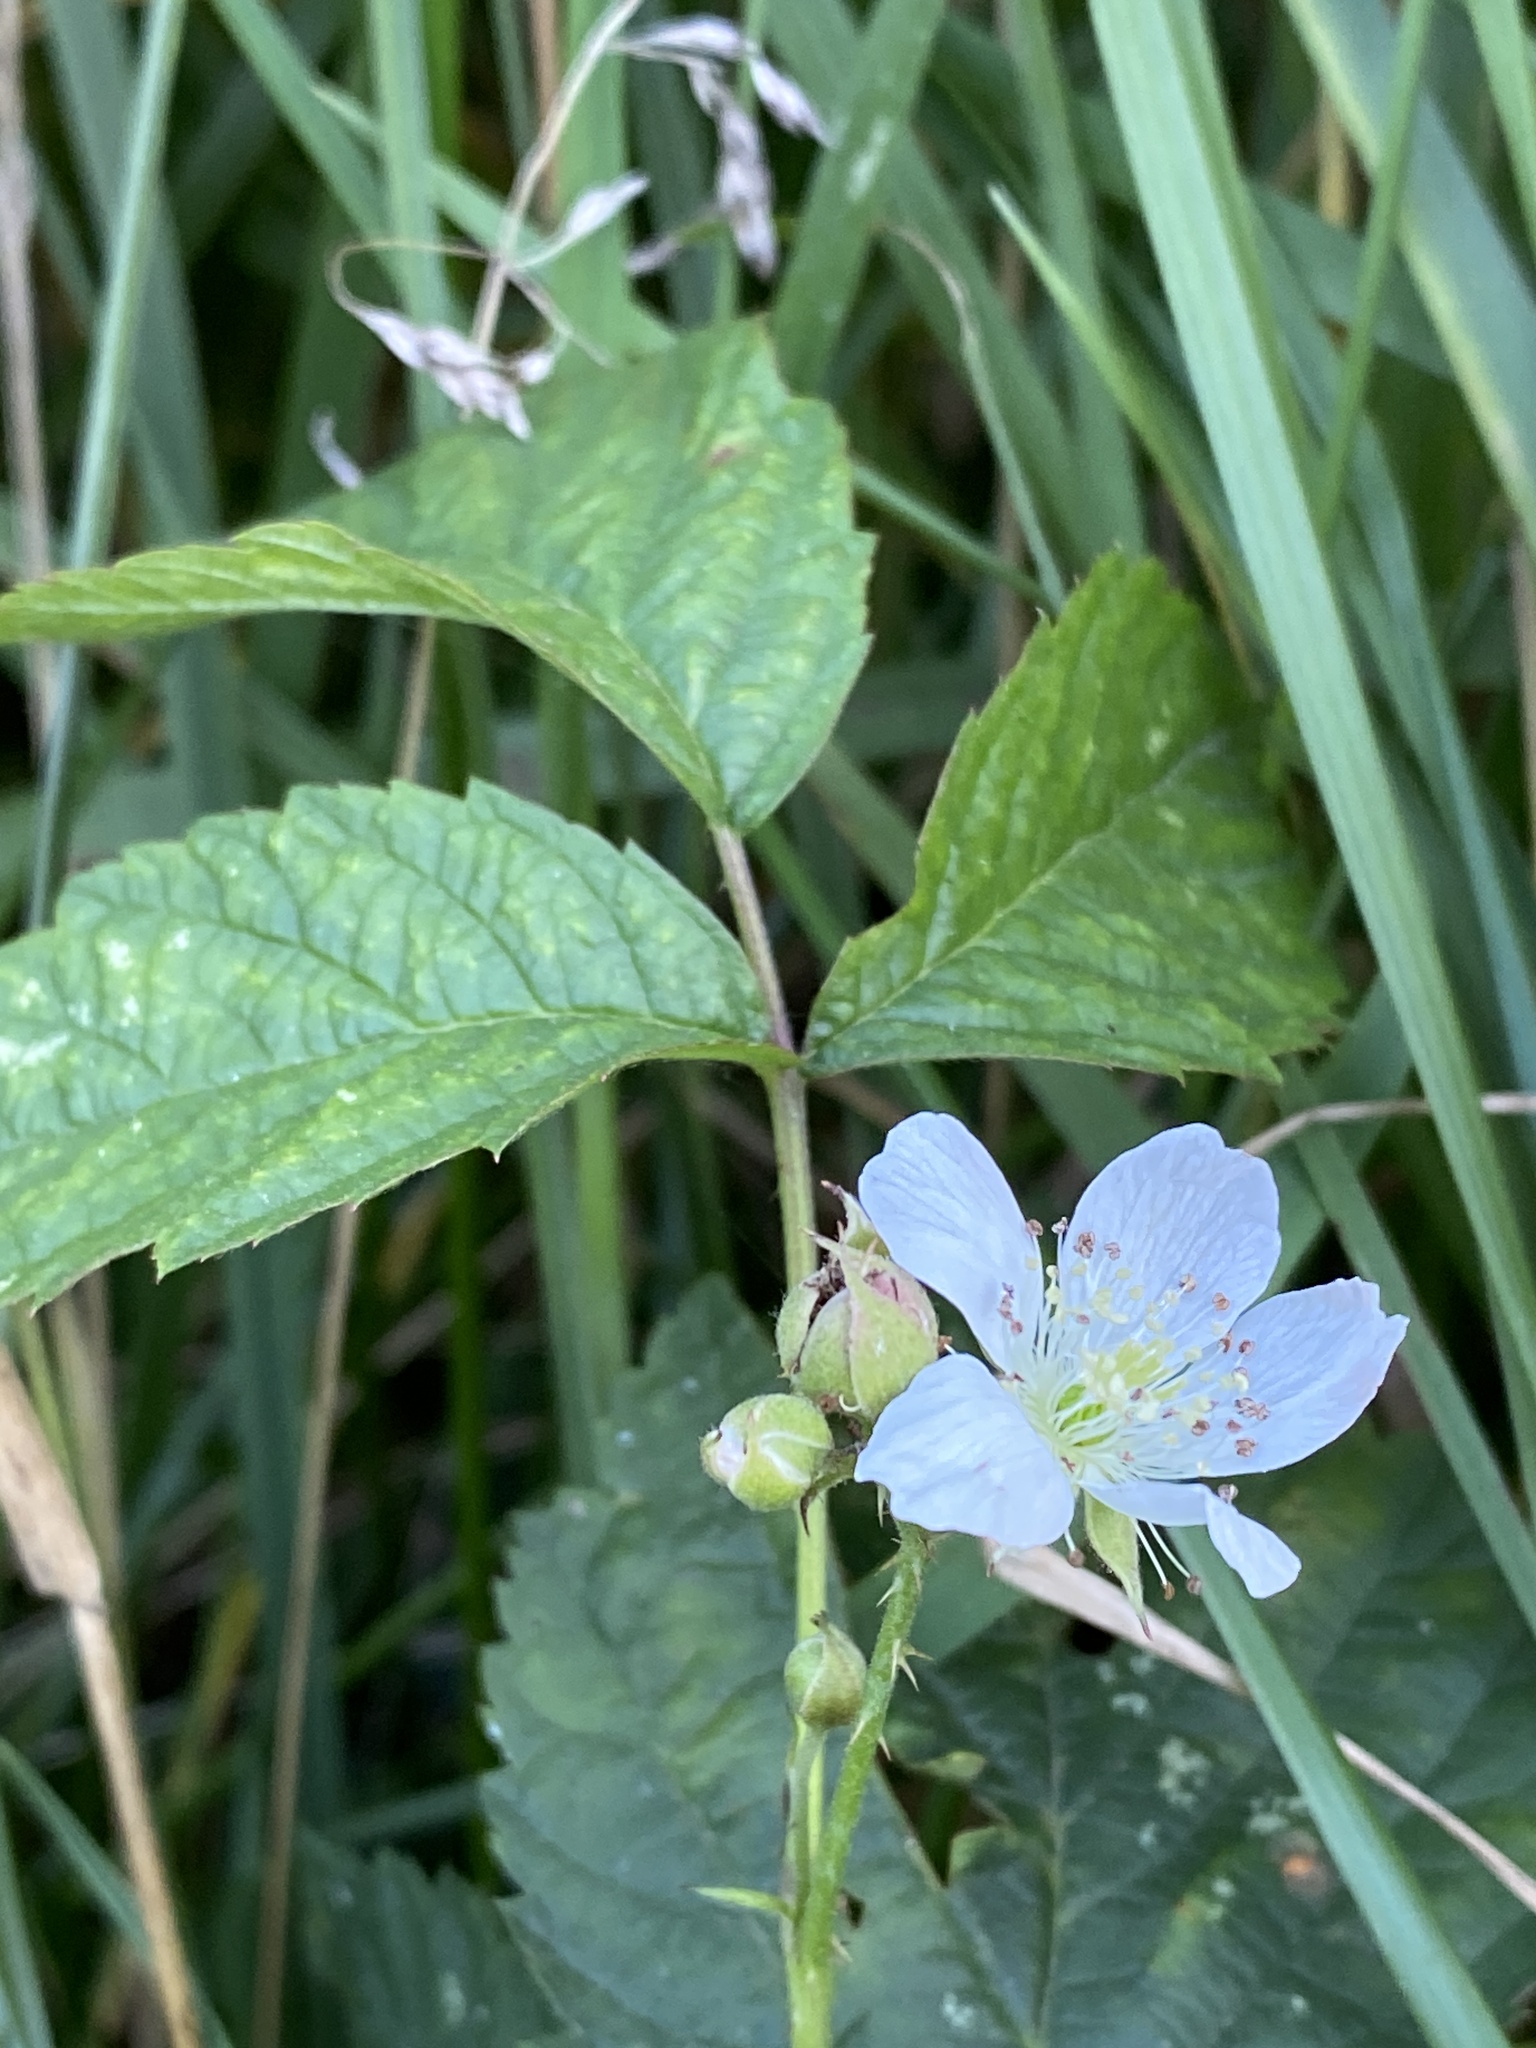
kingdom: Plantae
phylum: Tracheophyta
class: Magnoliopsida
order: Rosales
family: Rosaceae
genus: Rubus
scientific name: Rubus caesius
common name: Dewberry
